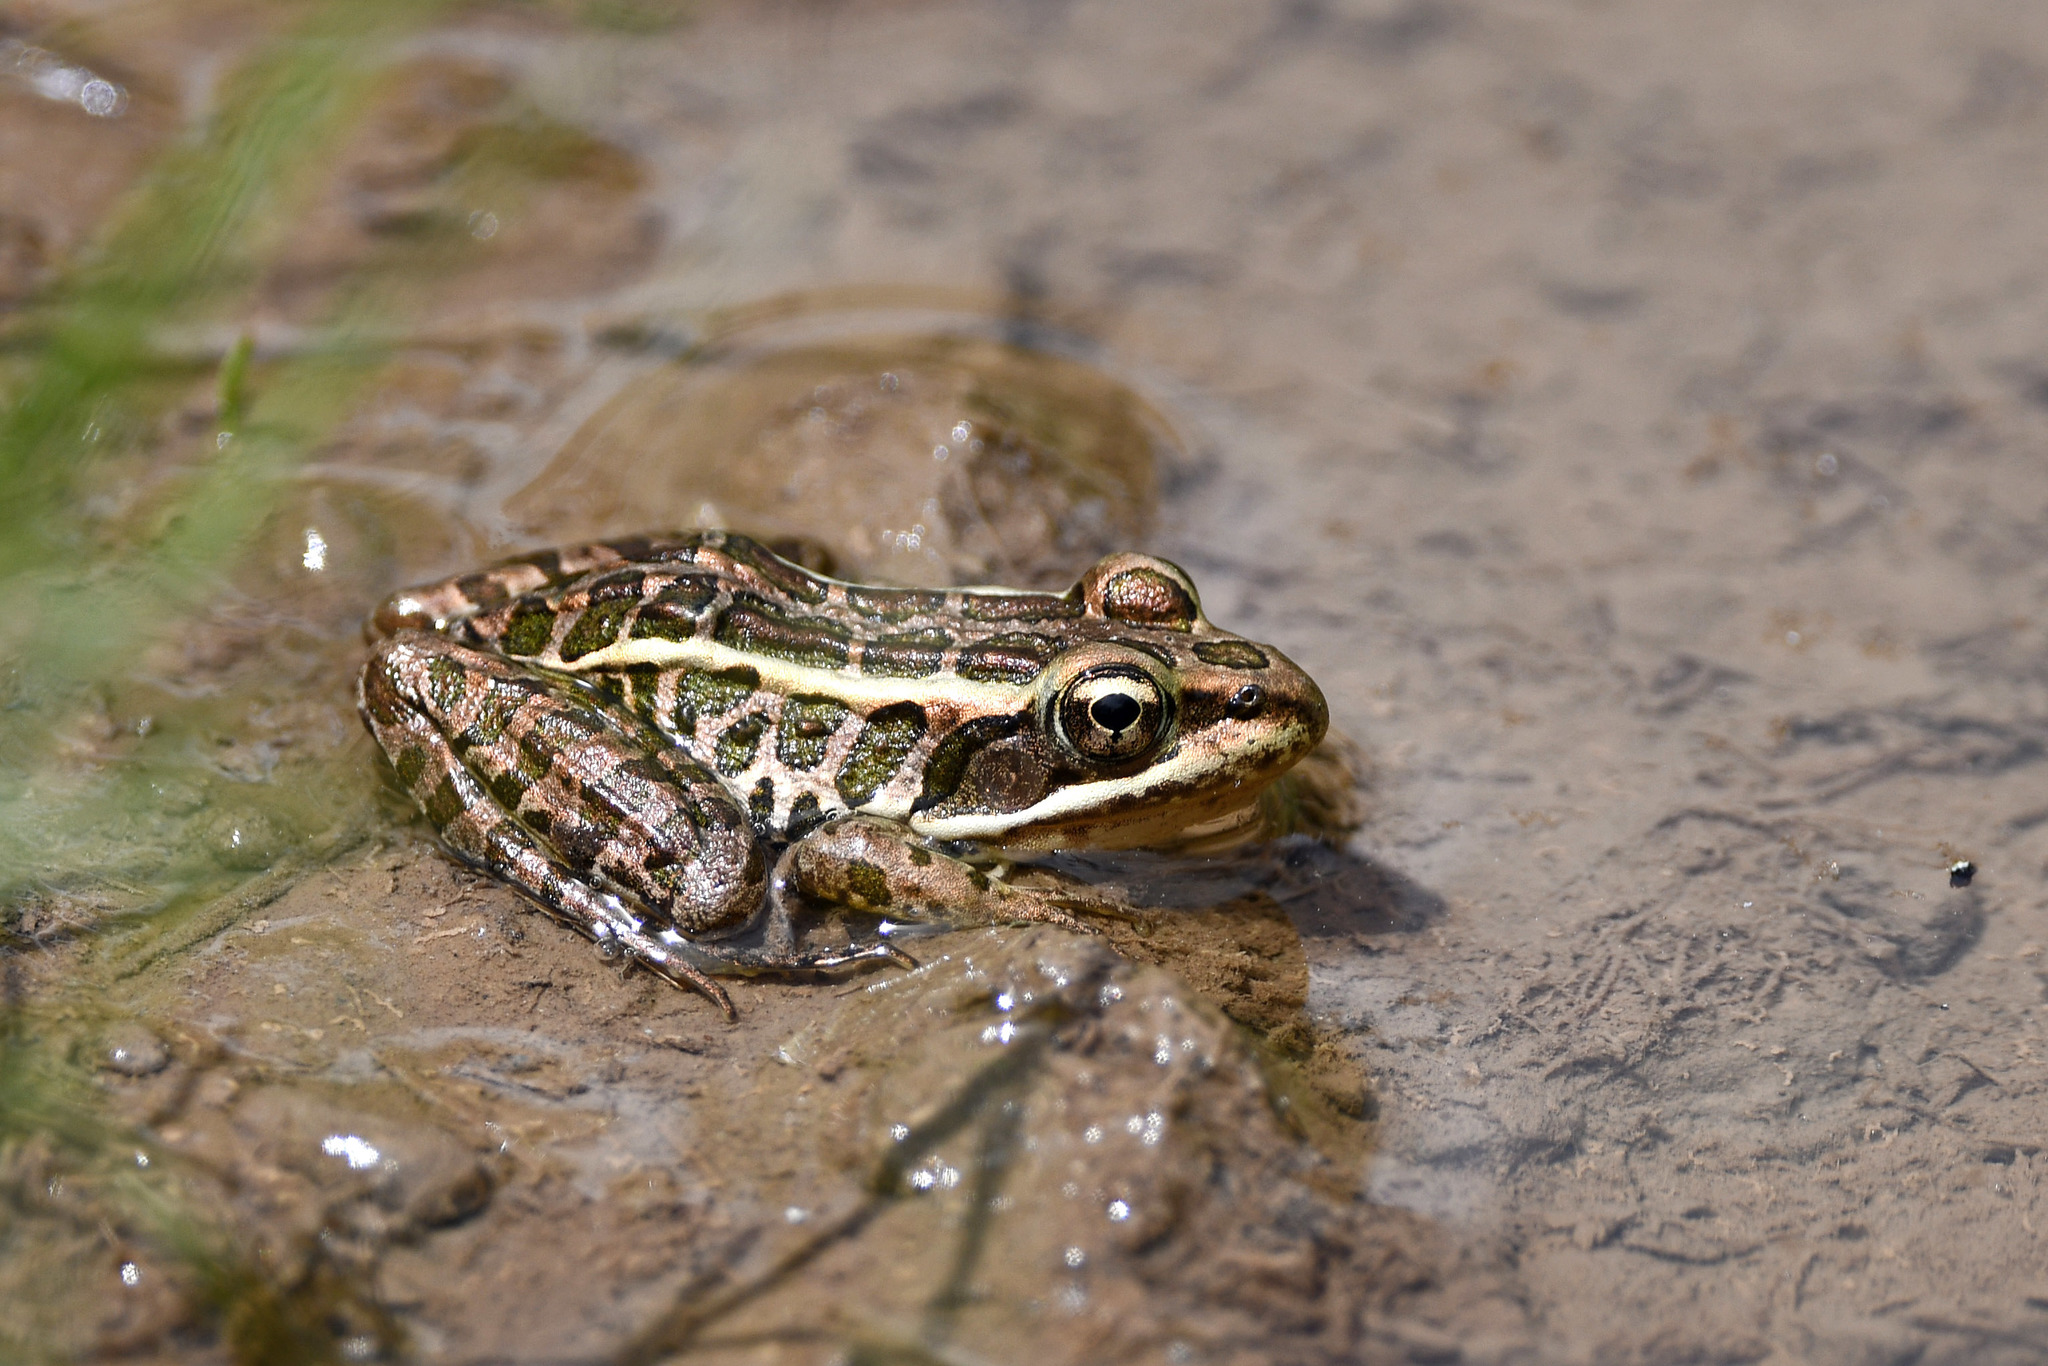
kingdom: Animalia
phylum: Chordata
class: Amphibia
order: Anura
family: Ranidae
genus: Lithobates
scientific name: Lithobates palustris
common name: Pickerel frog
